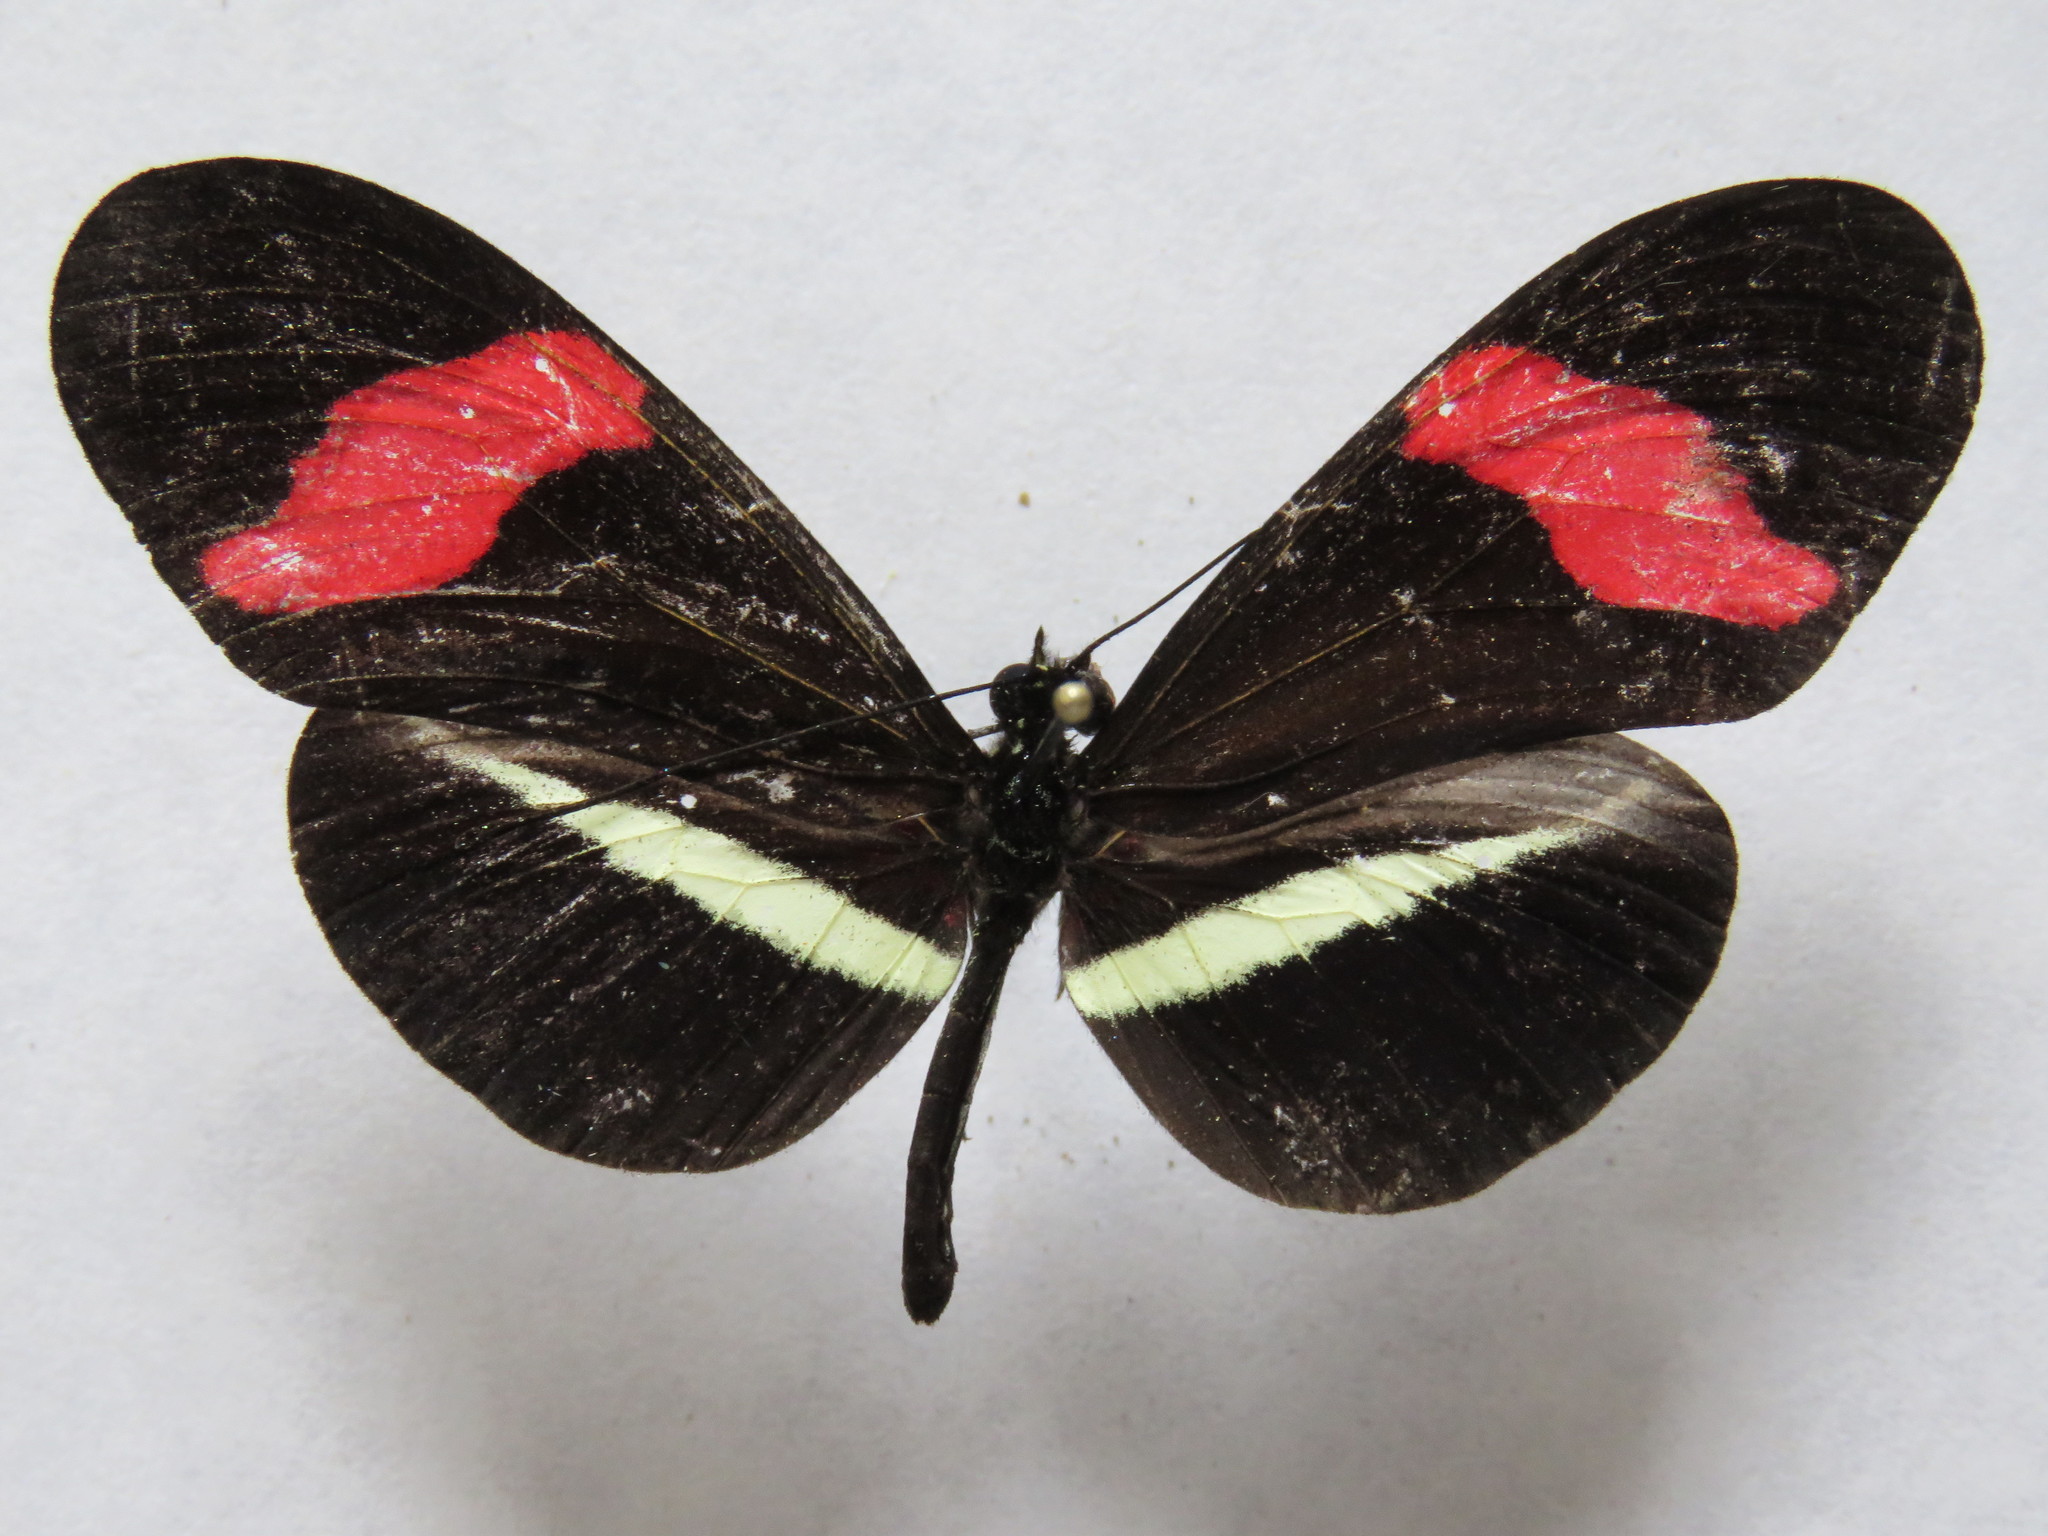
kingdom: Animalia
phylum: Arthropoda
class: Insecta
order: Lepidoptera
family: Nymphalidae
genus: Tirumala
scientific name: Tirumala petiverana
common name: Blue monarch
